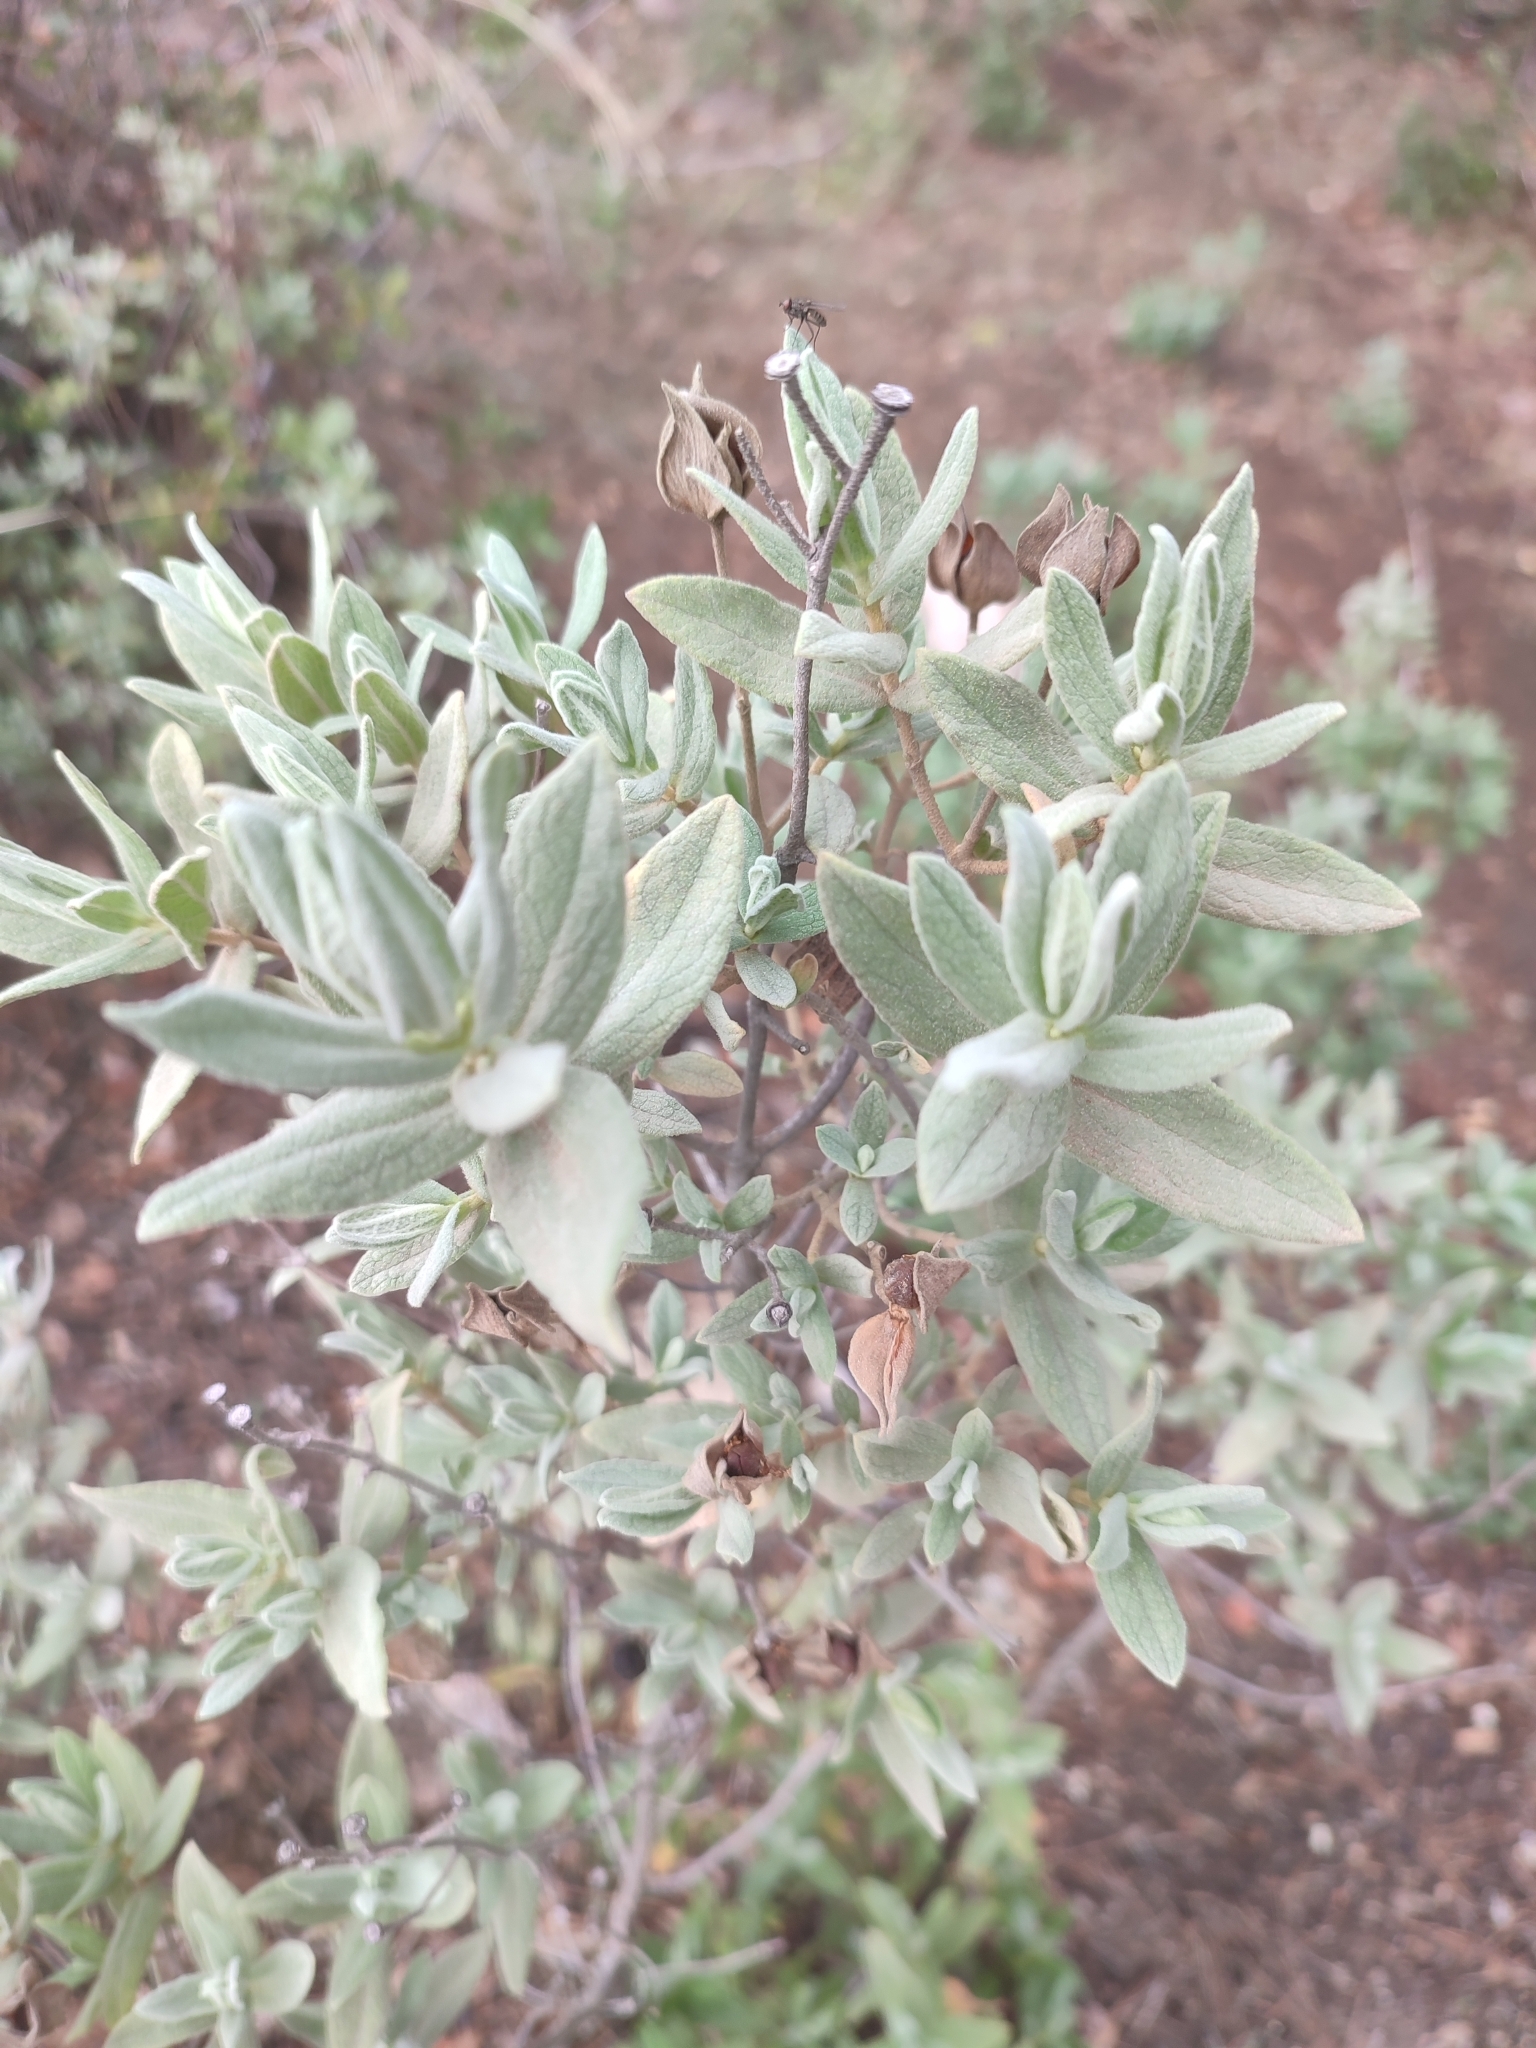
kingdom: Plantae
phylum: Tracheophyta
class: Magnoliopsida
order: Malvales
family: Cistaceae
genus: Cistus
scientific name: Cistus albidus
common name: White-leaf rock-rose
